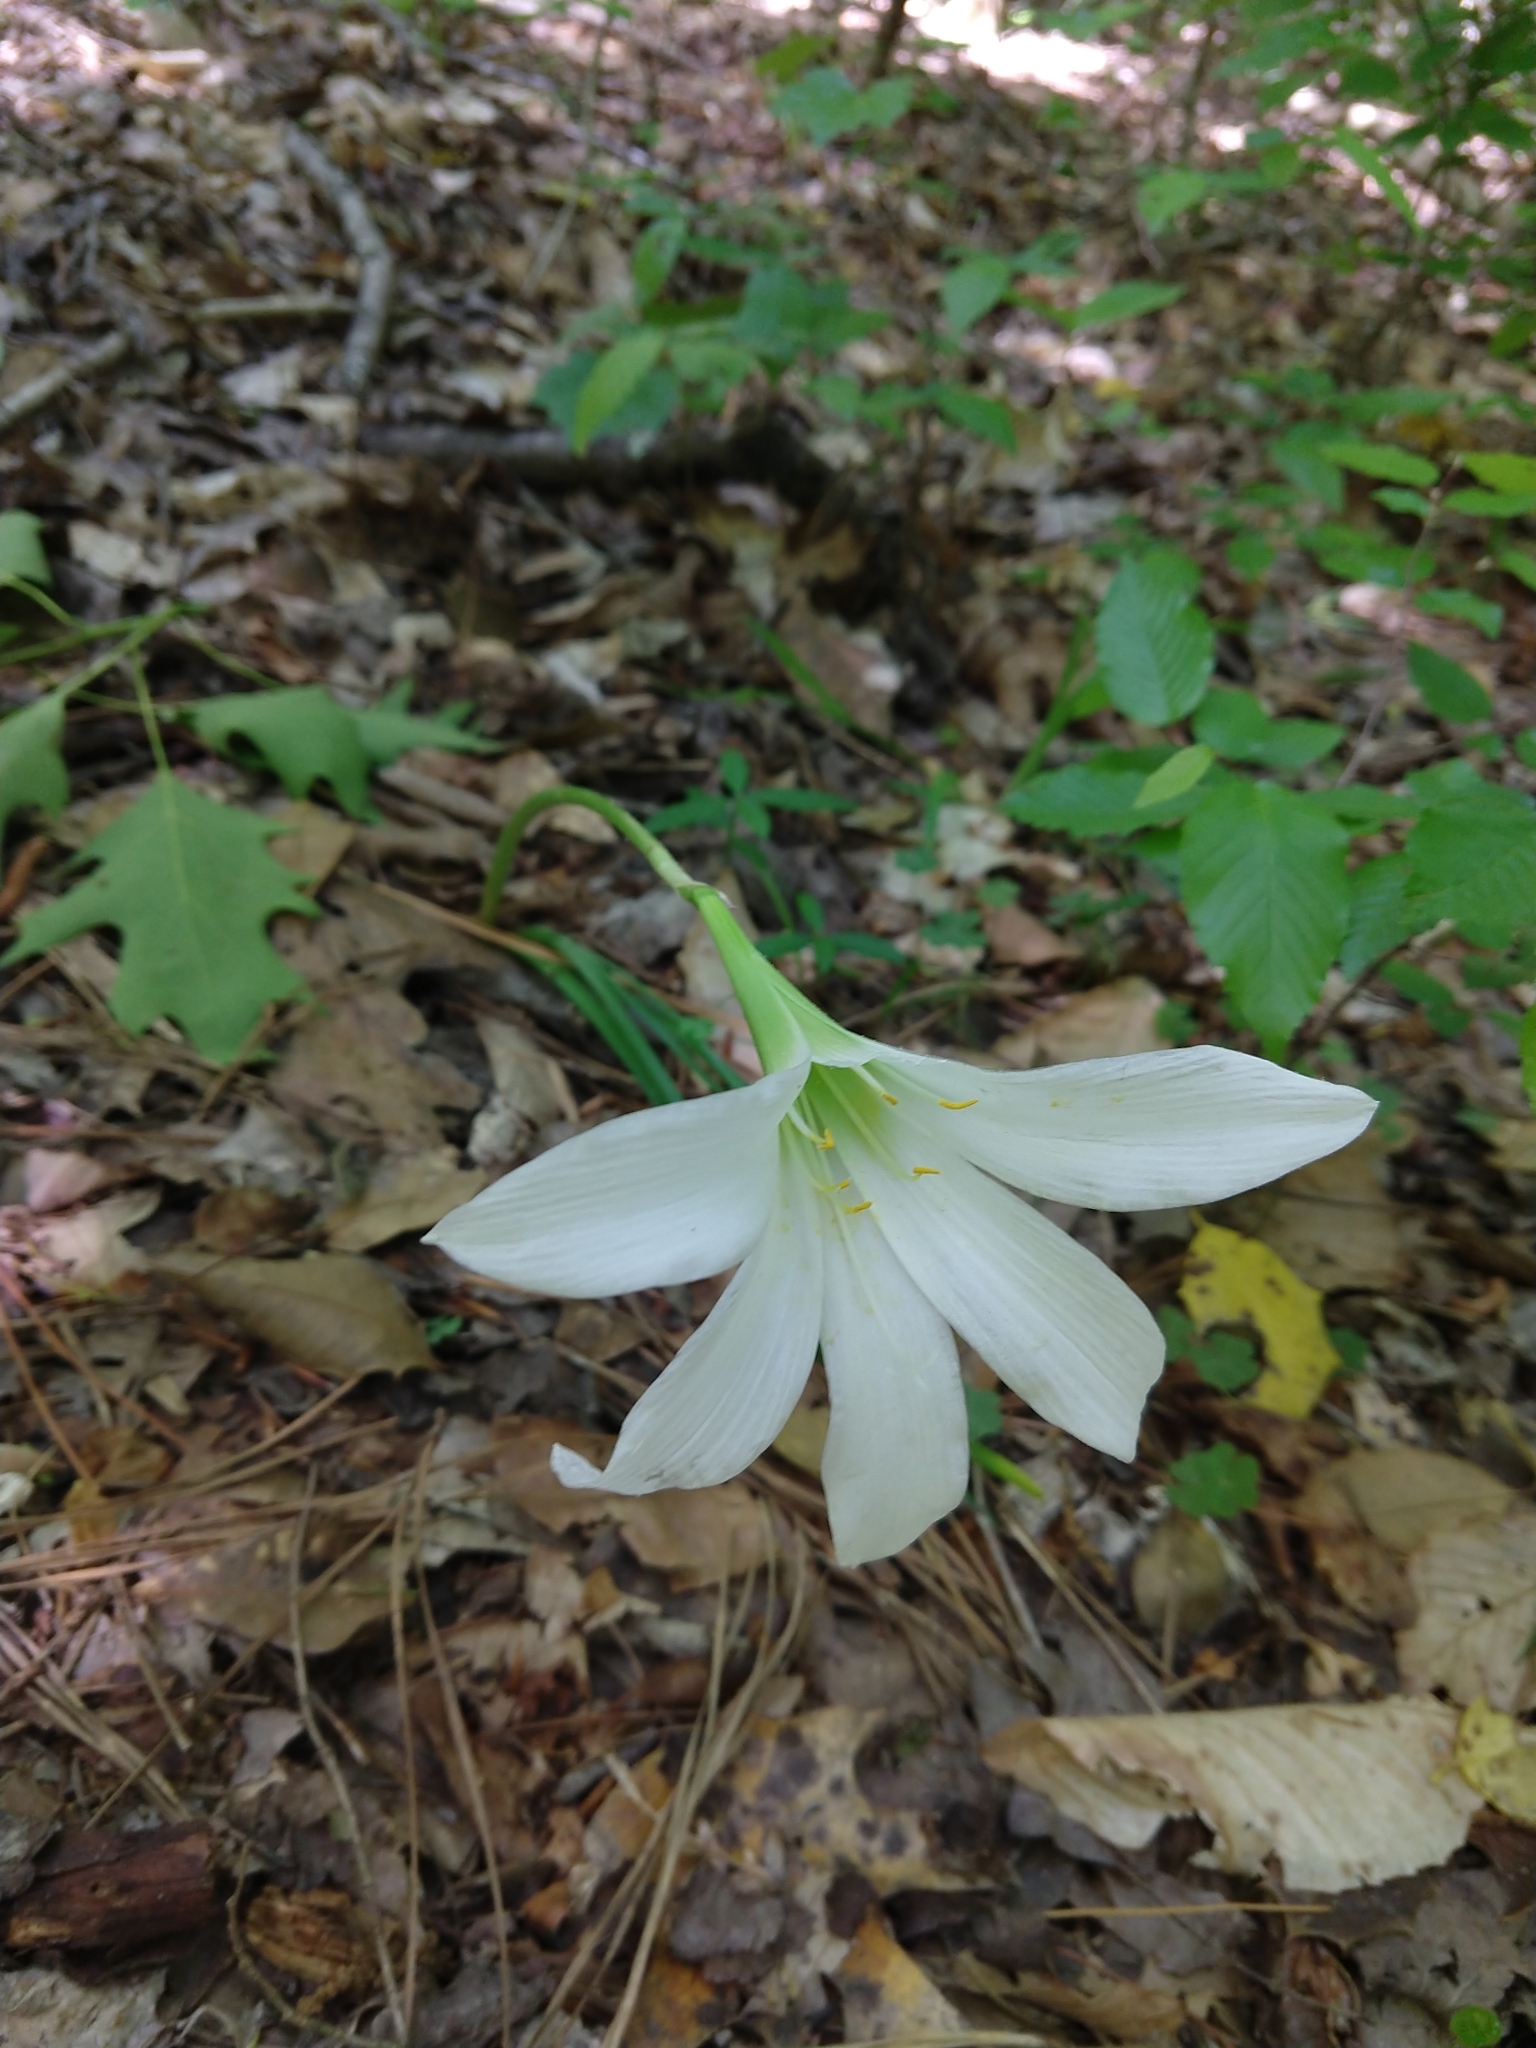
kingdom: Plantae
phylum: Tracheophyta
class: Liliopsida
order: Asparagales
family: Amaryllidaceae
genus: Zephyranthes
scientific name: Zephyranthes atamasco
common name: Atamasco lily
